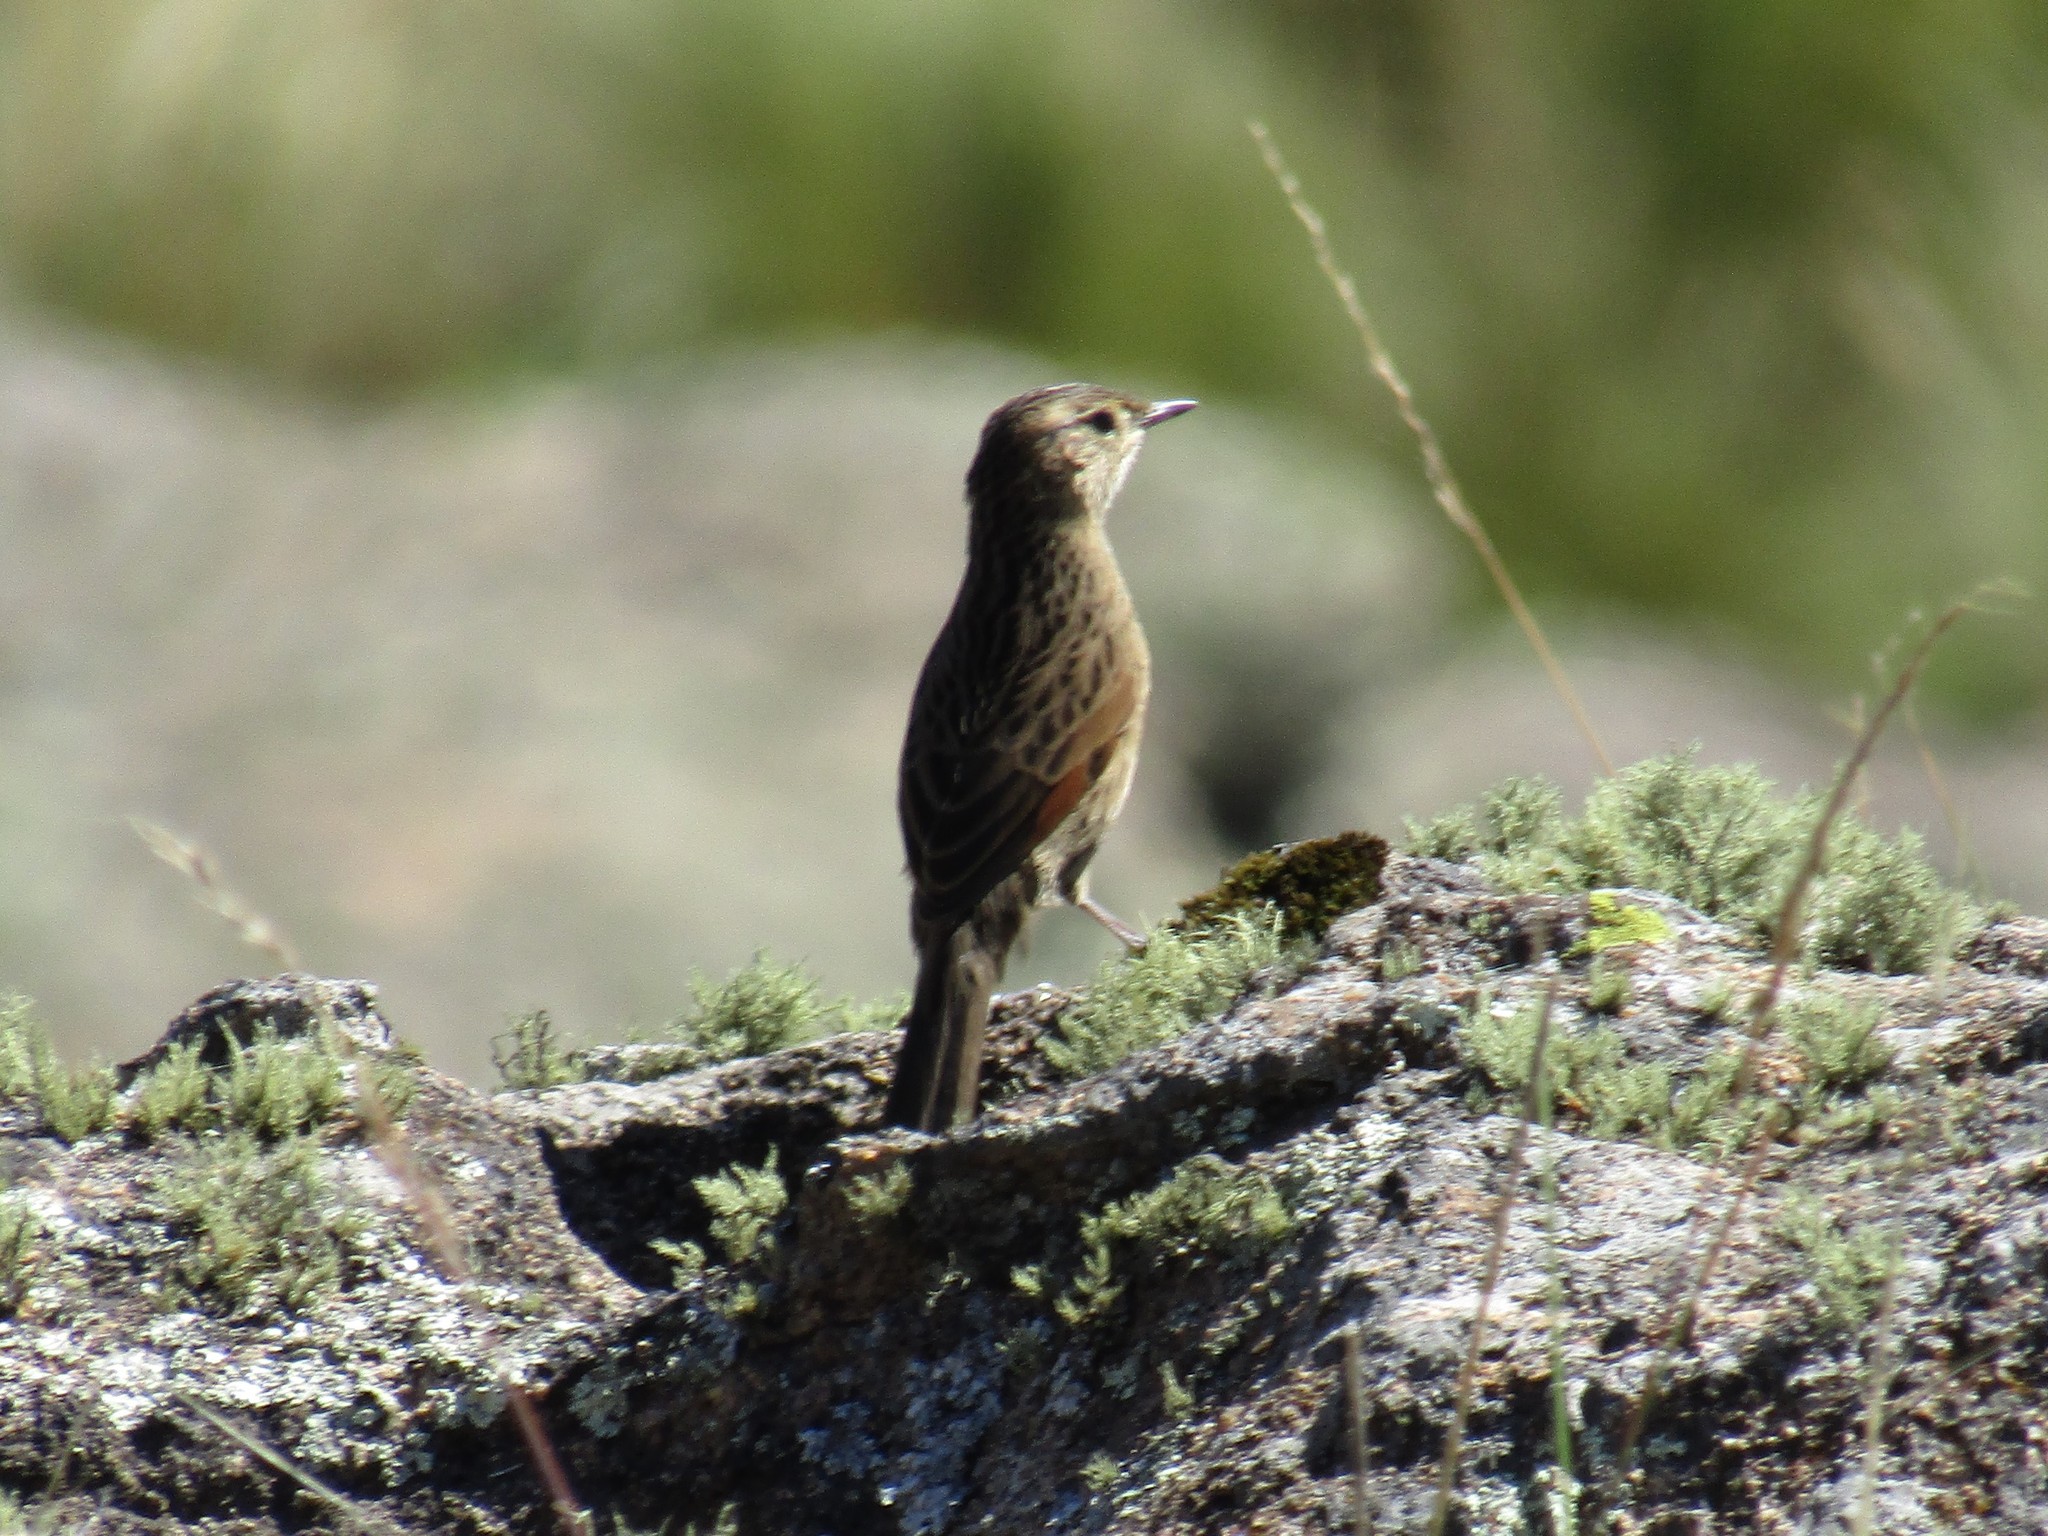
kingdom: Animalia
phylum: Chordata
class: Aves
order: Passeriformes
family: Furnariidae
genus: Asthenes
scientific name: Asthenes wyatti
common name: Streak-backed canastero
